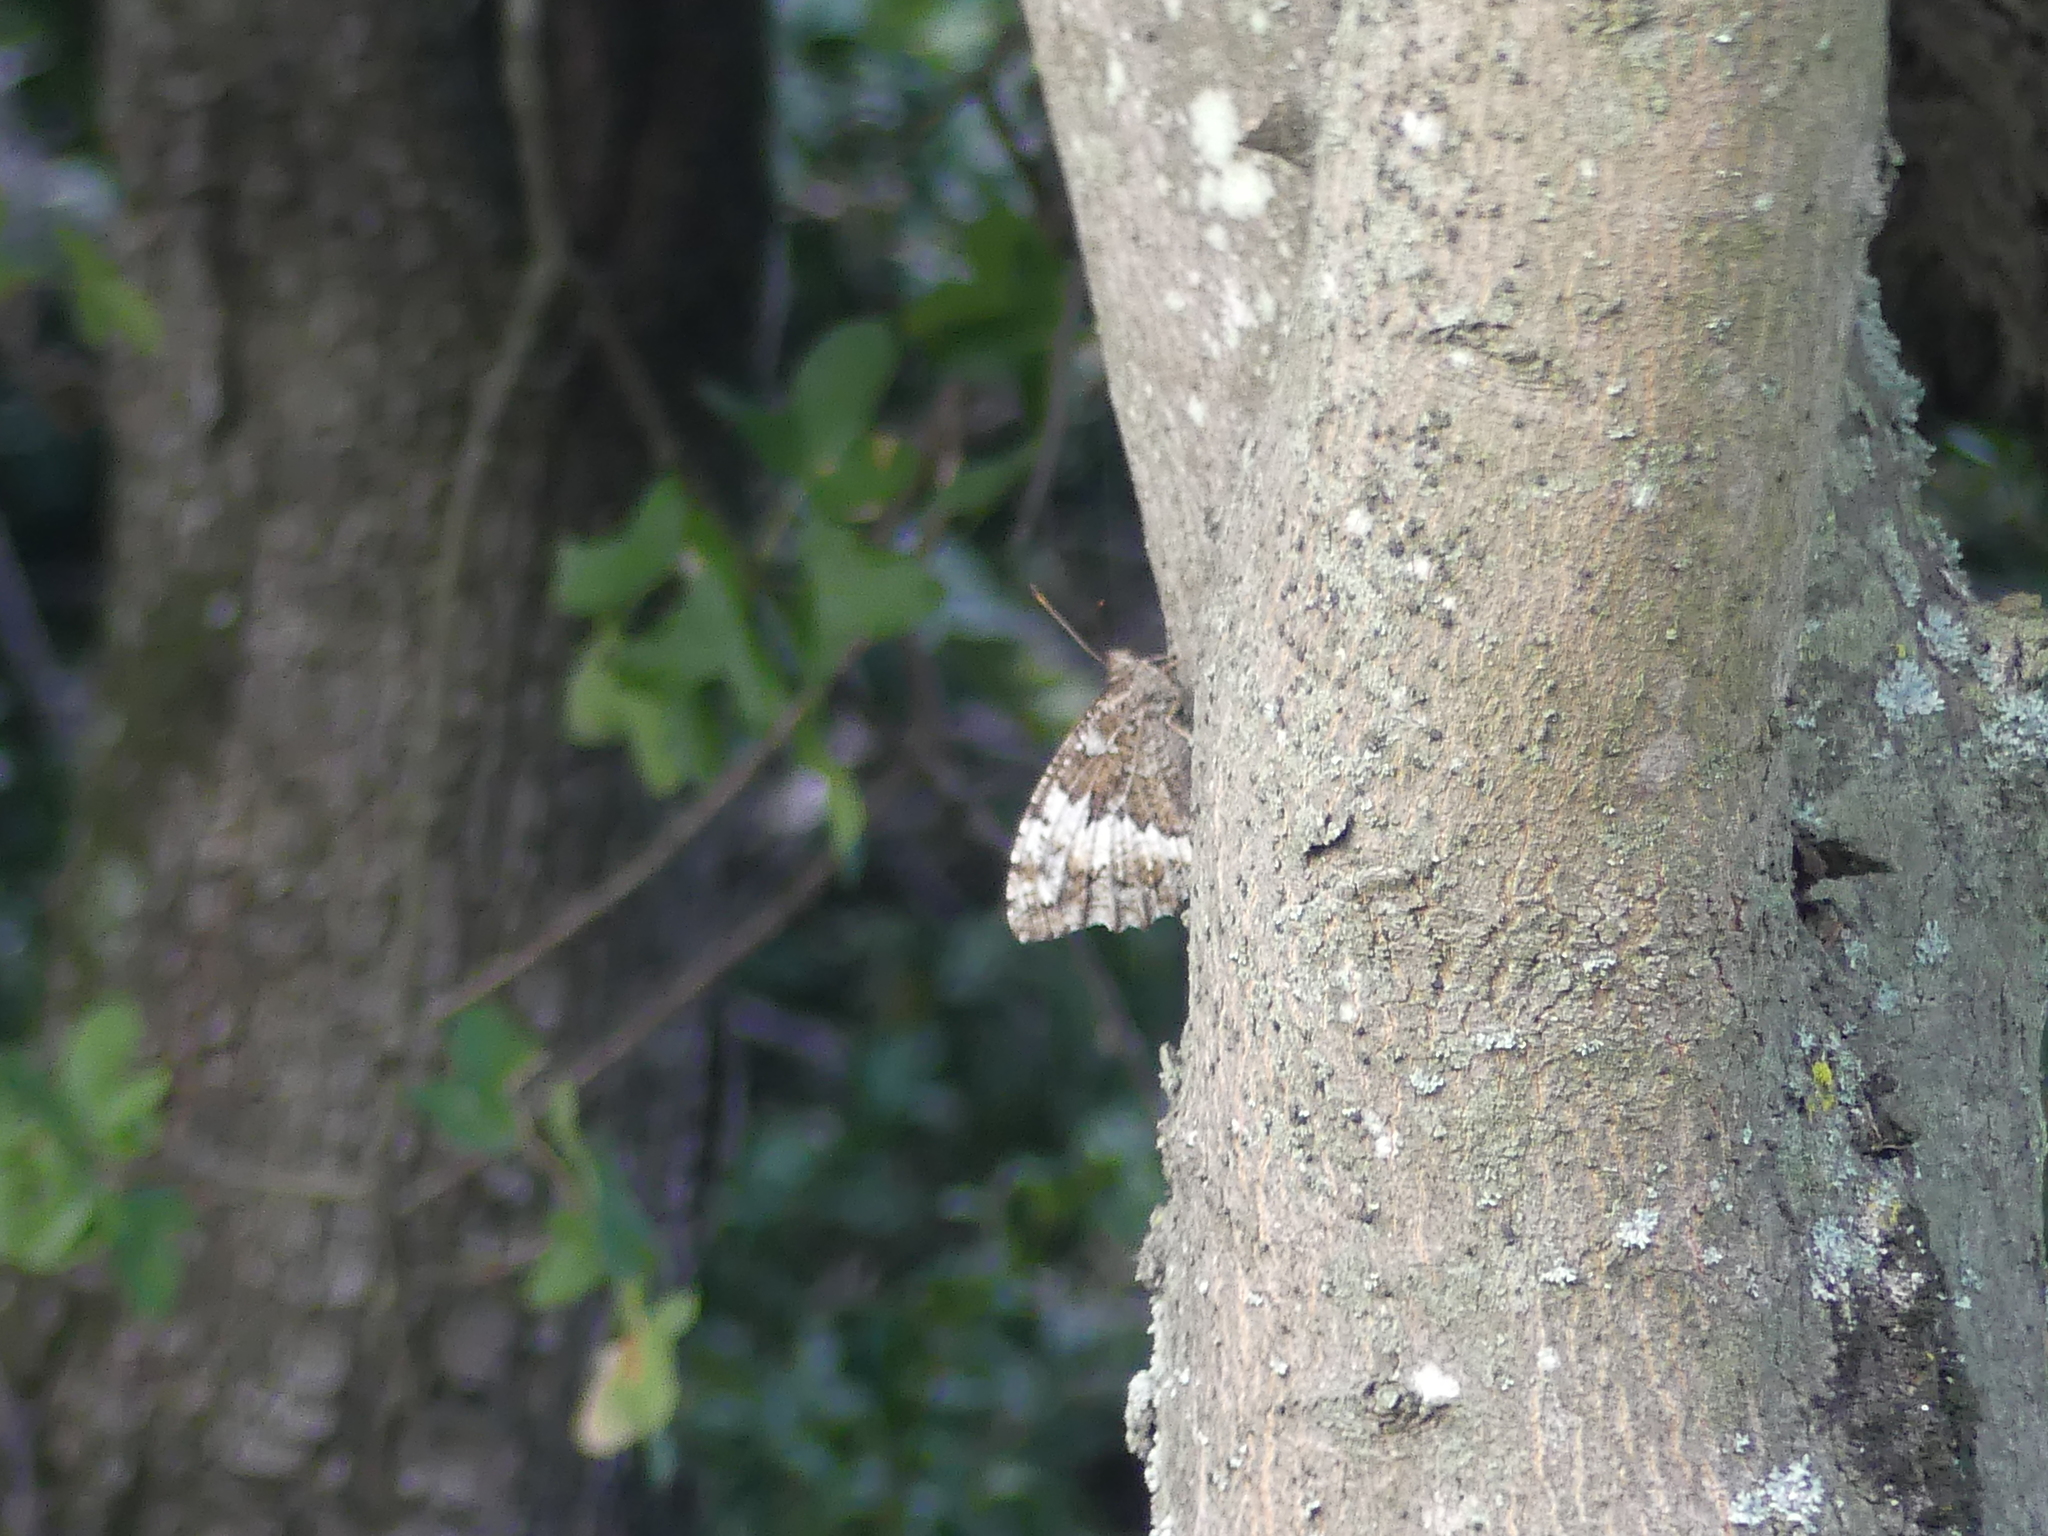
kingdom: Animalia
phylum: Arthropoda
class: Insecta
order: Lepidoptera
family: Lycaenidae
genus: Loweia
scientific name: Loweia tityrus
